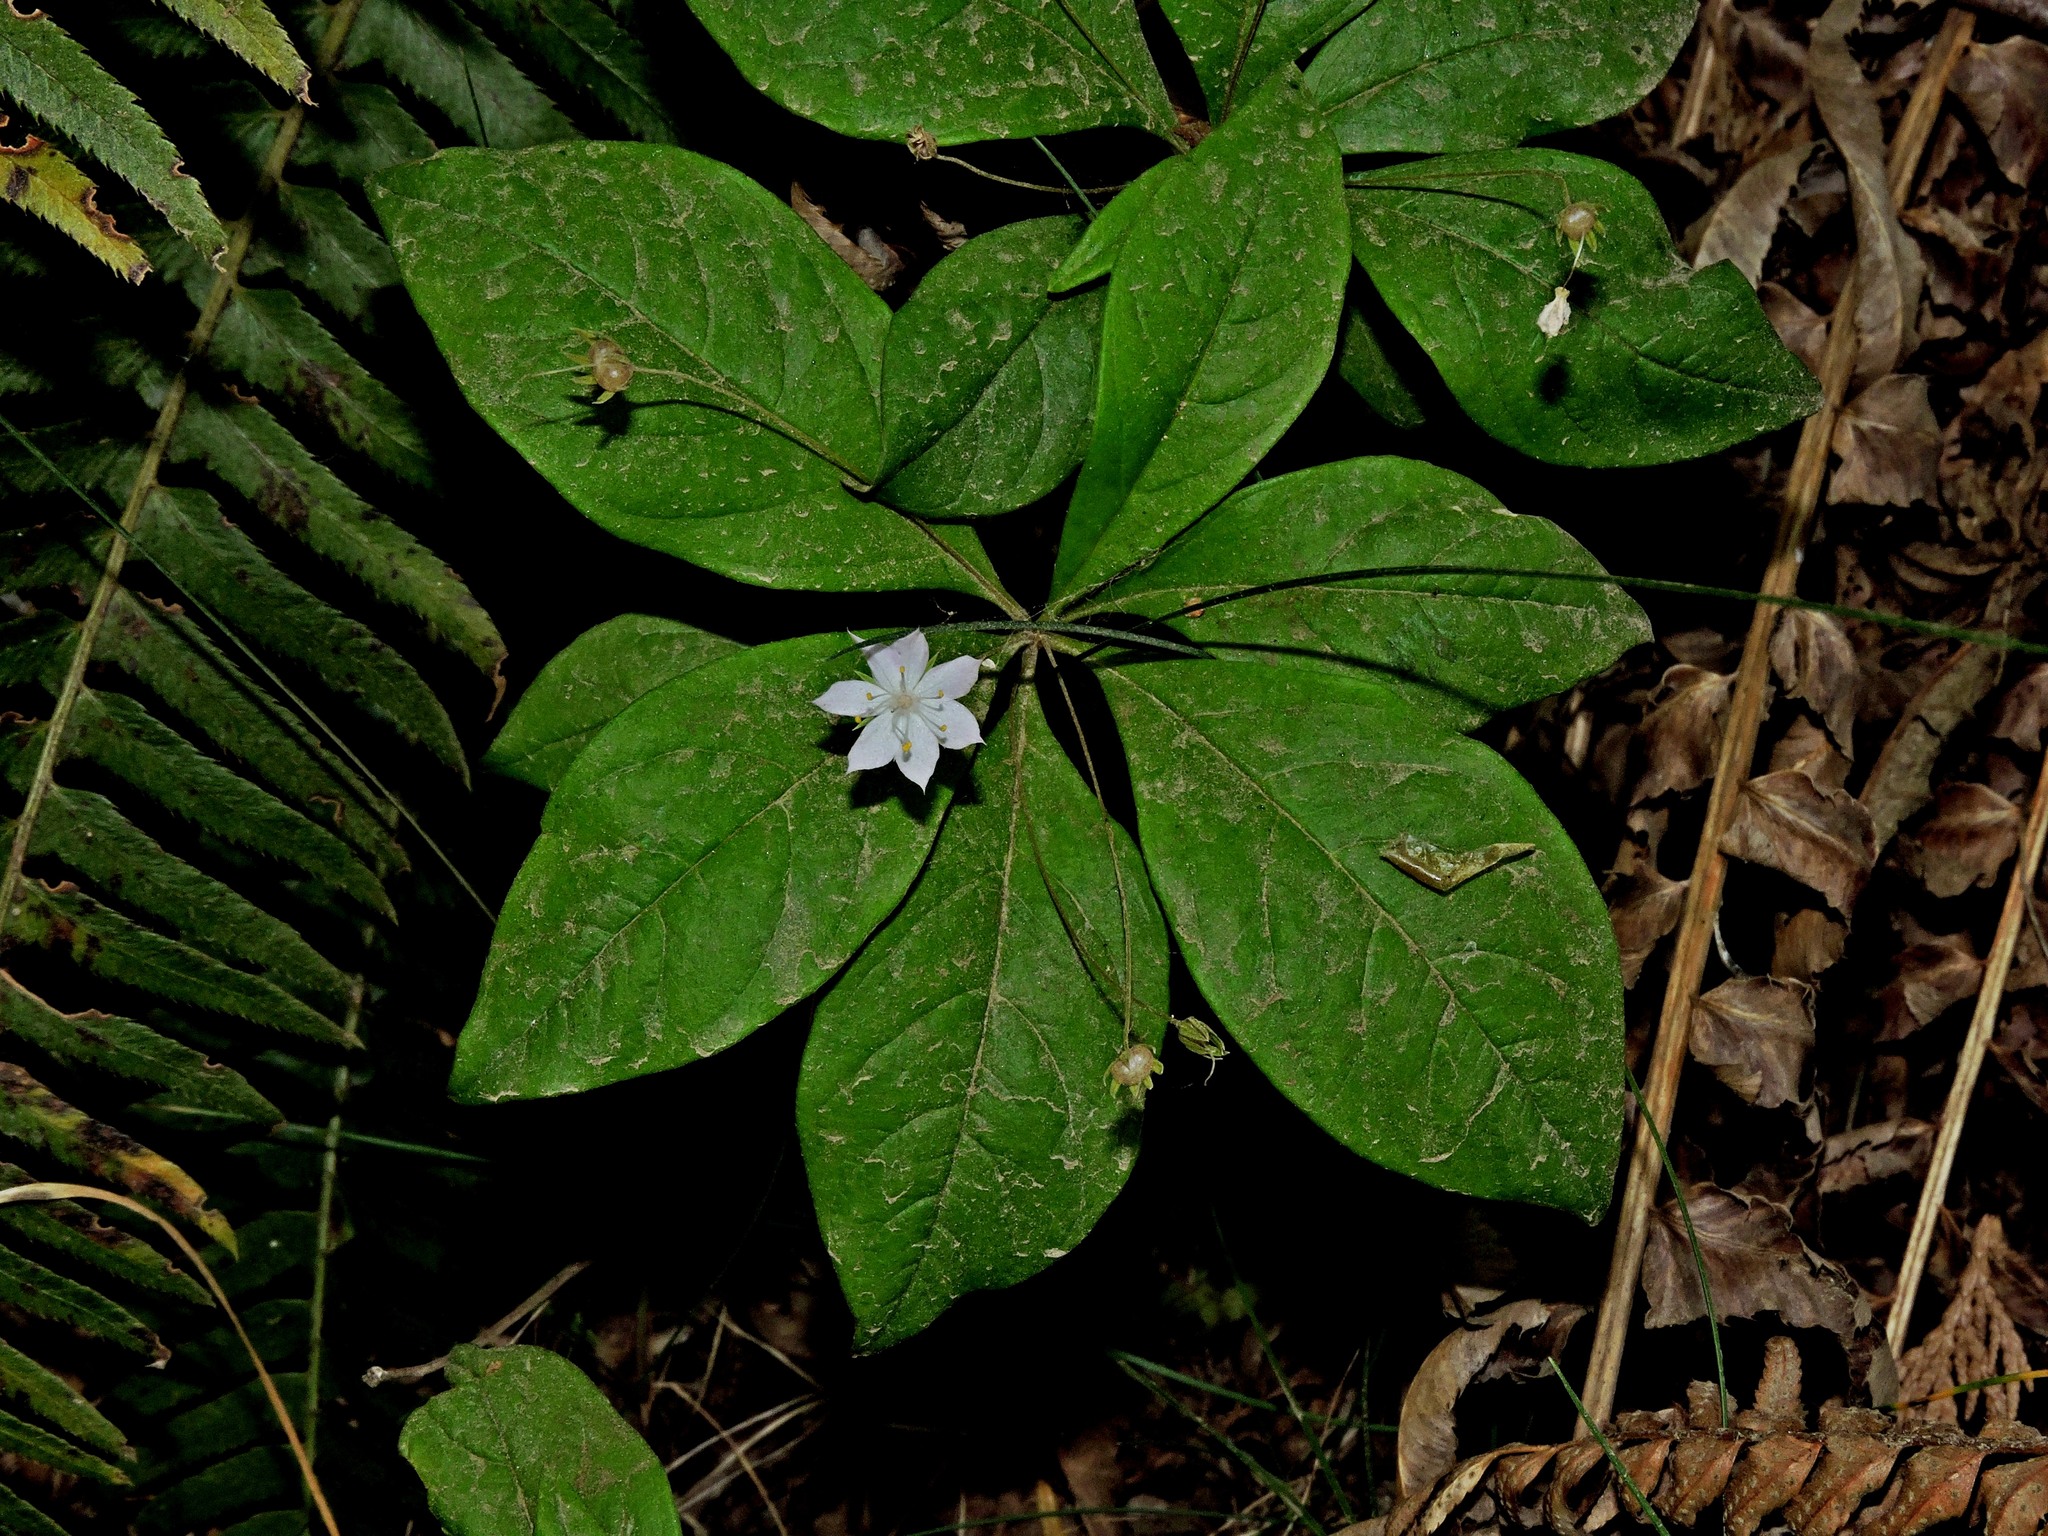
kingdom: Plantae
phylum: Tracheophyta
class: Magnoliopsida
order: Ericales
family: Primulaceae
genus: Lysimachia
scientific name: Lysimachia latifolia
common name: Pacific starflower
